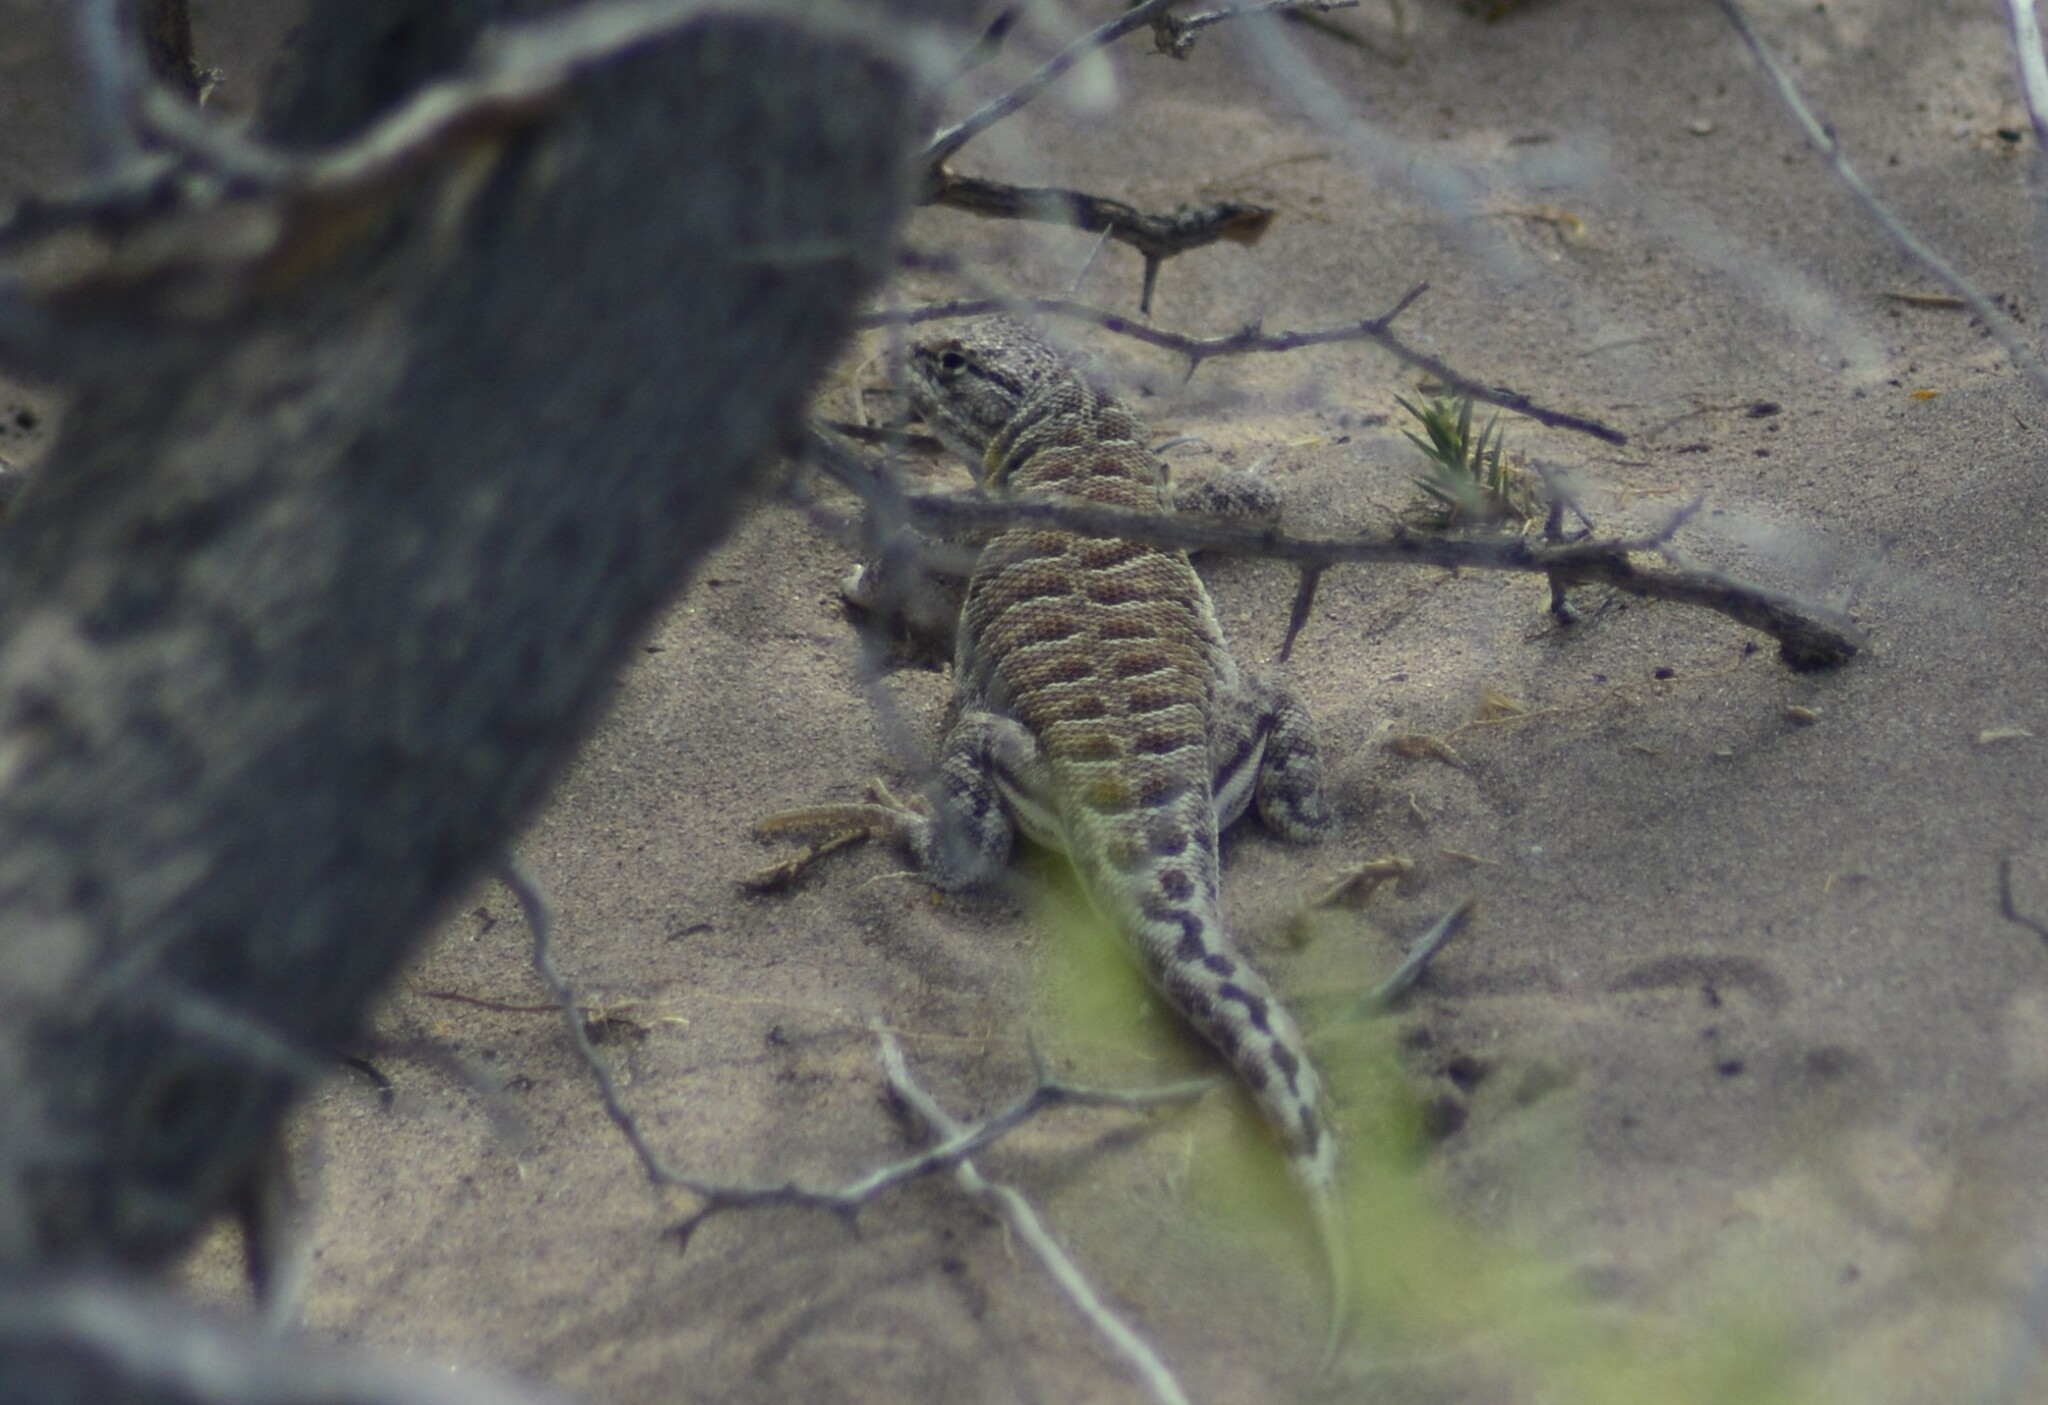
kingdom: Animalia
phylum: Chordata
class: Squamata
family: Liolaemidae
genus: Liolaemus
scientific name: Liolaemus cuyanus
